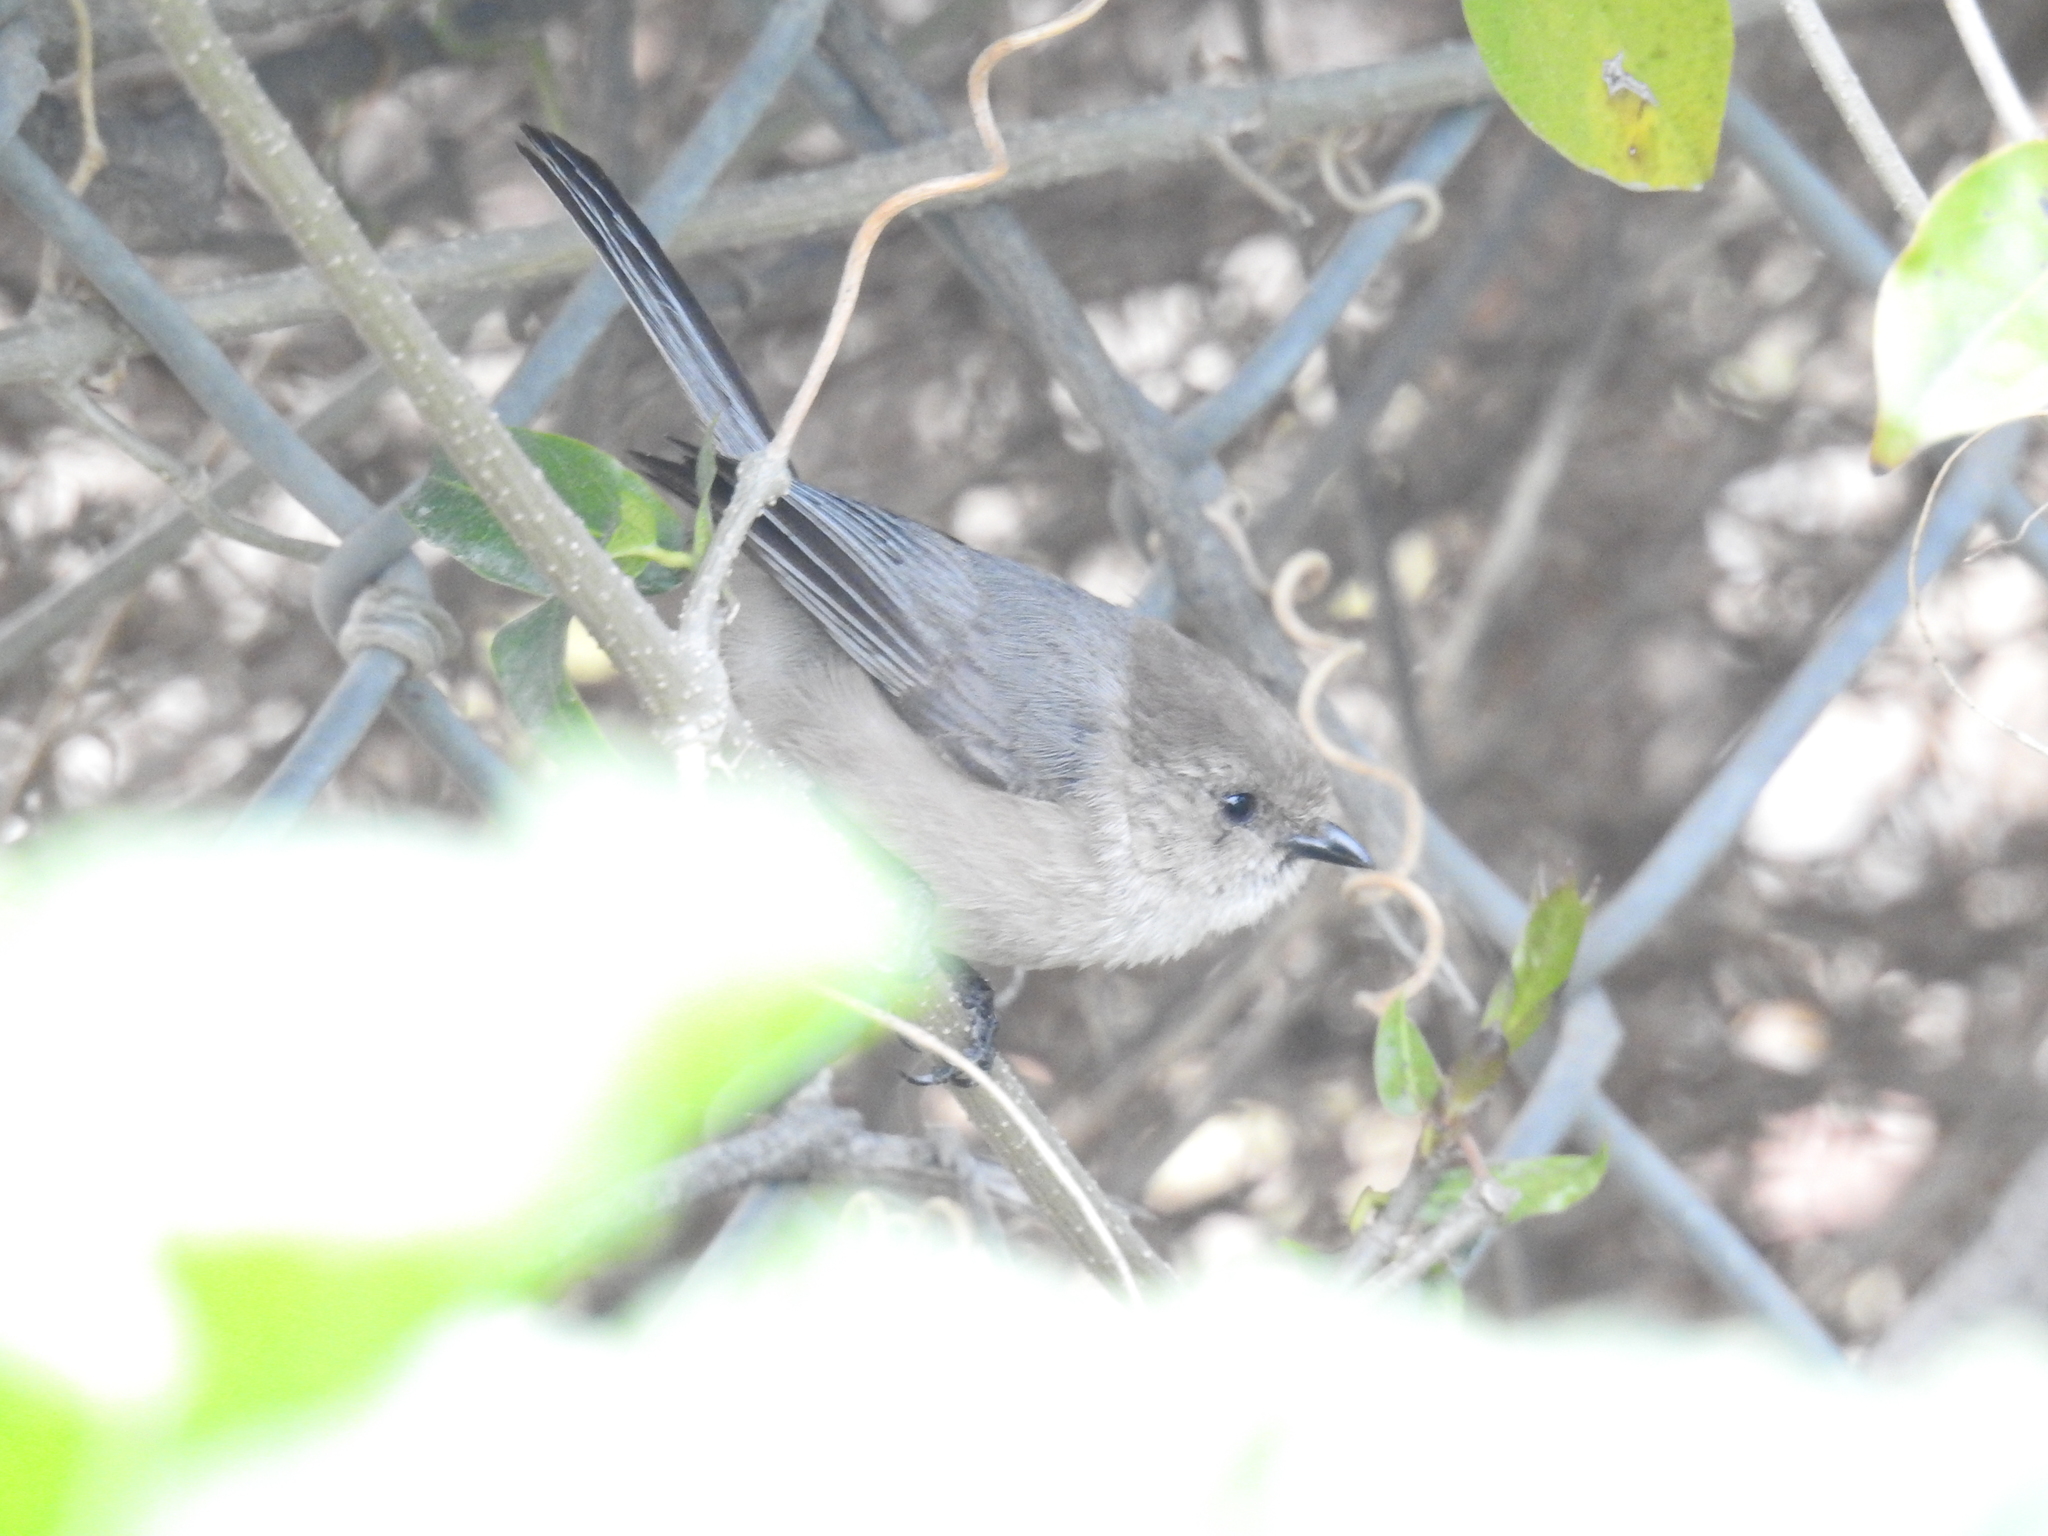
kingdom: Animalia
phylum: Chordata
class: Aves
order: Passeriformes
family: Aegithalidae
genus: Psaltriparus
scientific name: Psaltriparus minimus
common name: American bushtit
